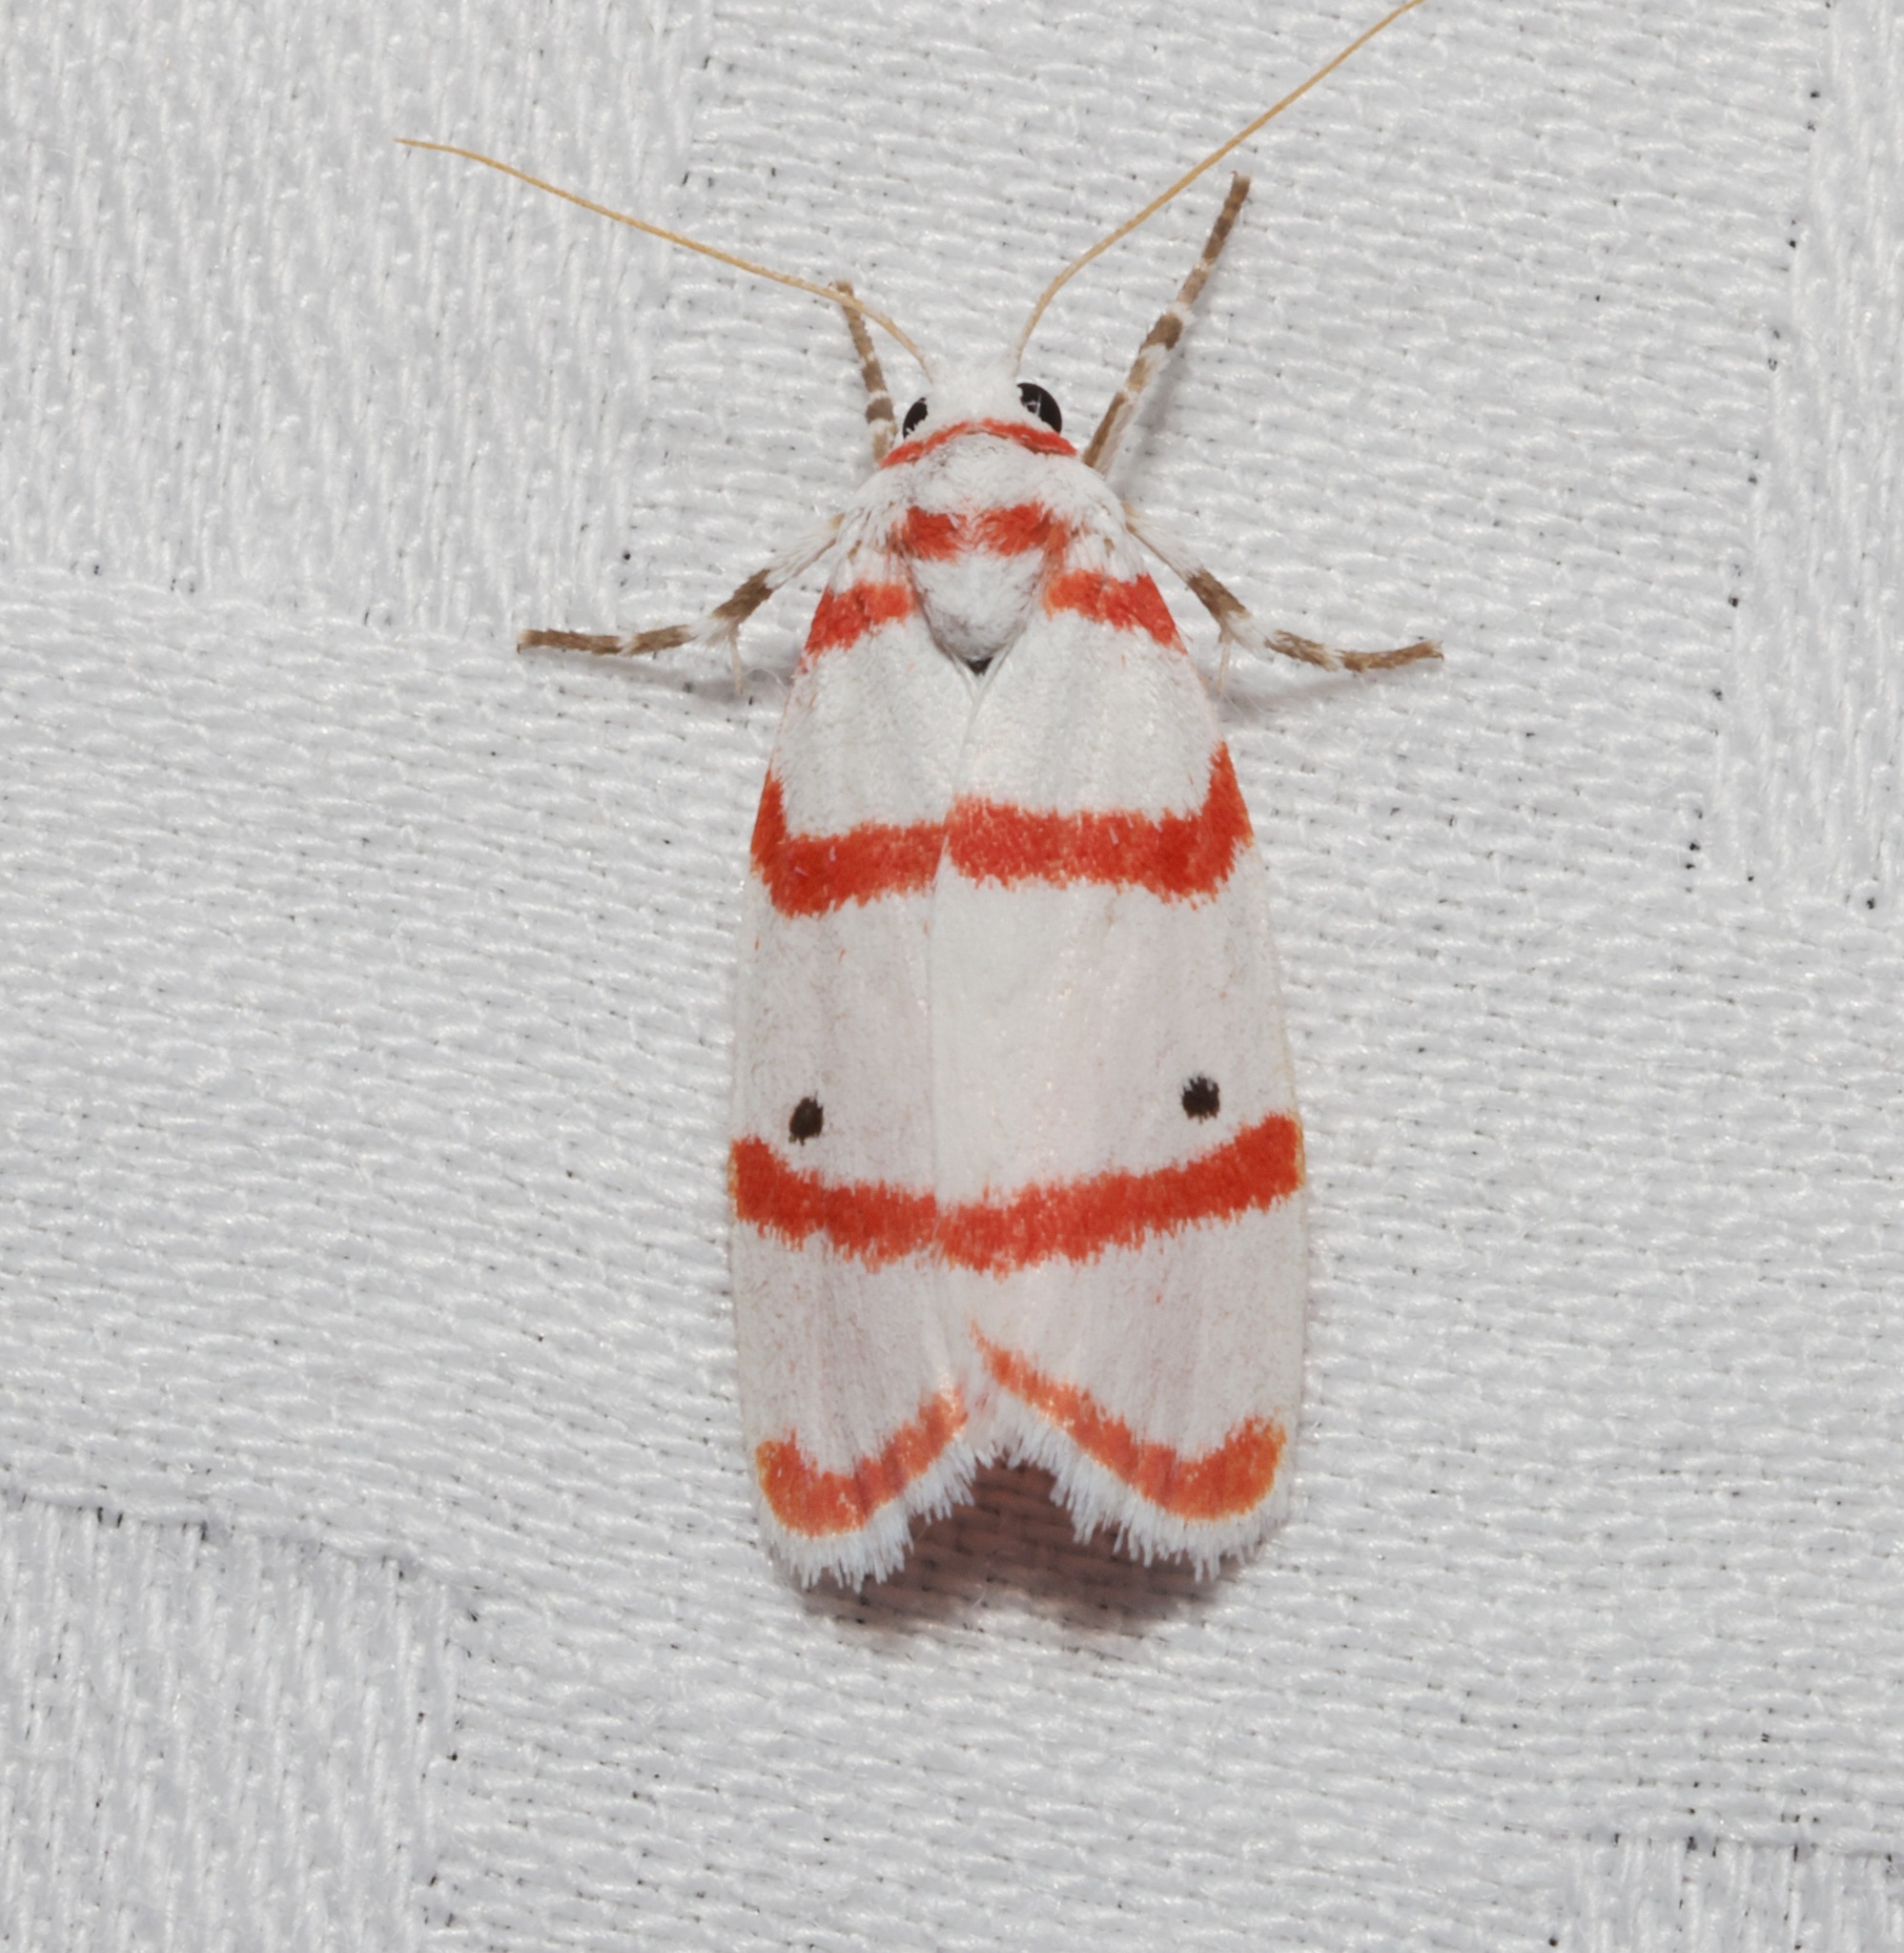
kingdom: Animalia
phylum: Arthropoda
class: Insecta
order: Lepidoptera
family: Erebidae
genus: Cyana
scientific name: Cyana gelida
